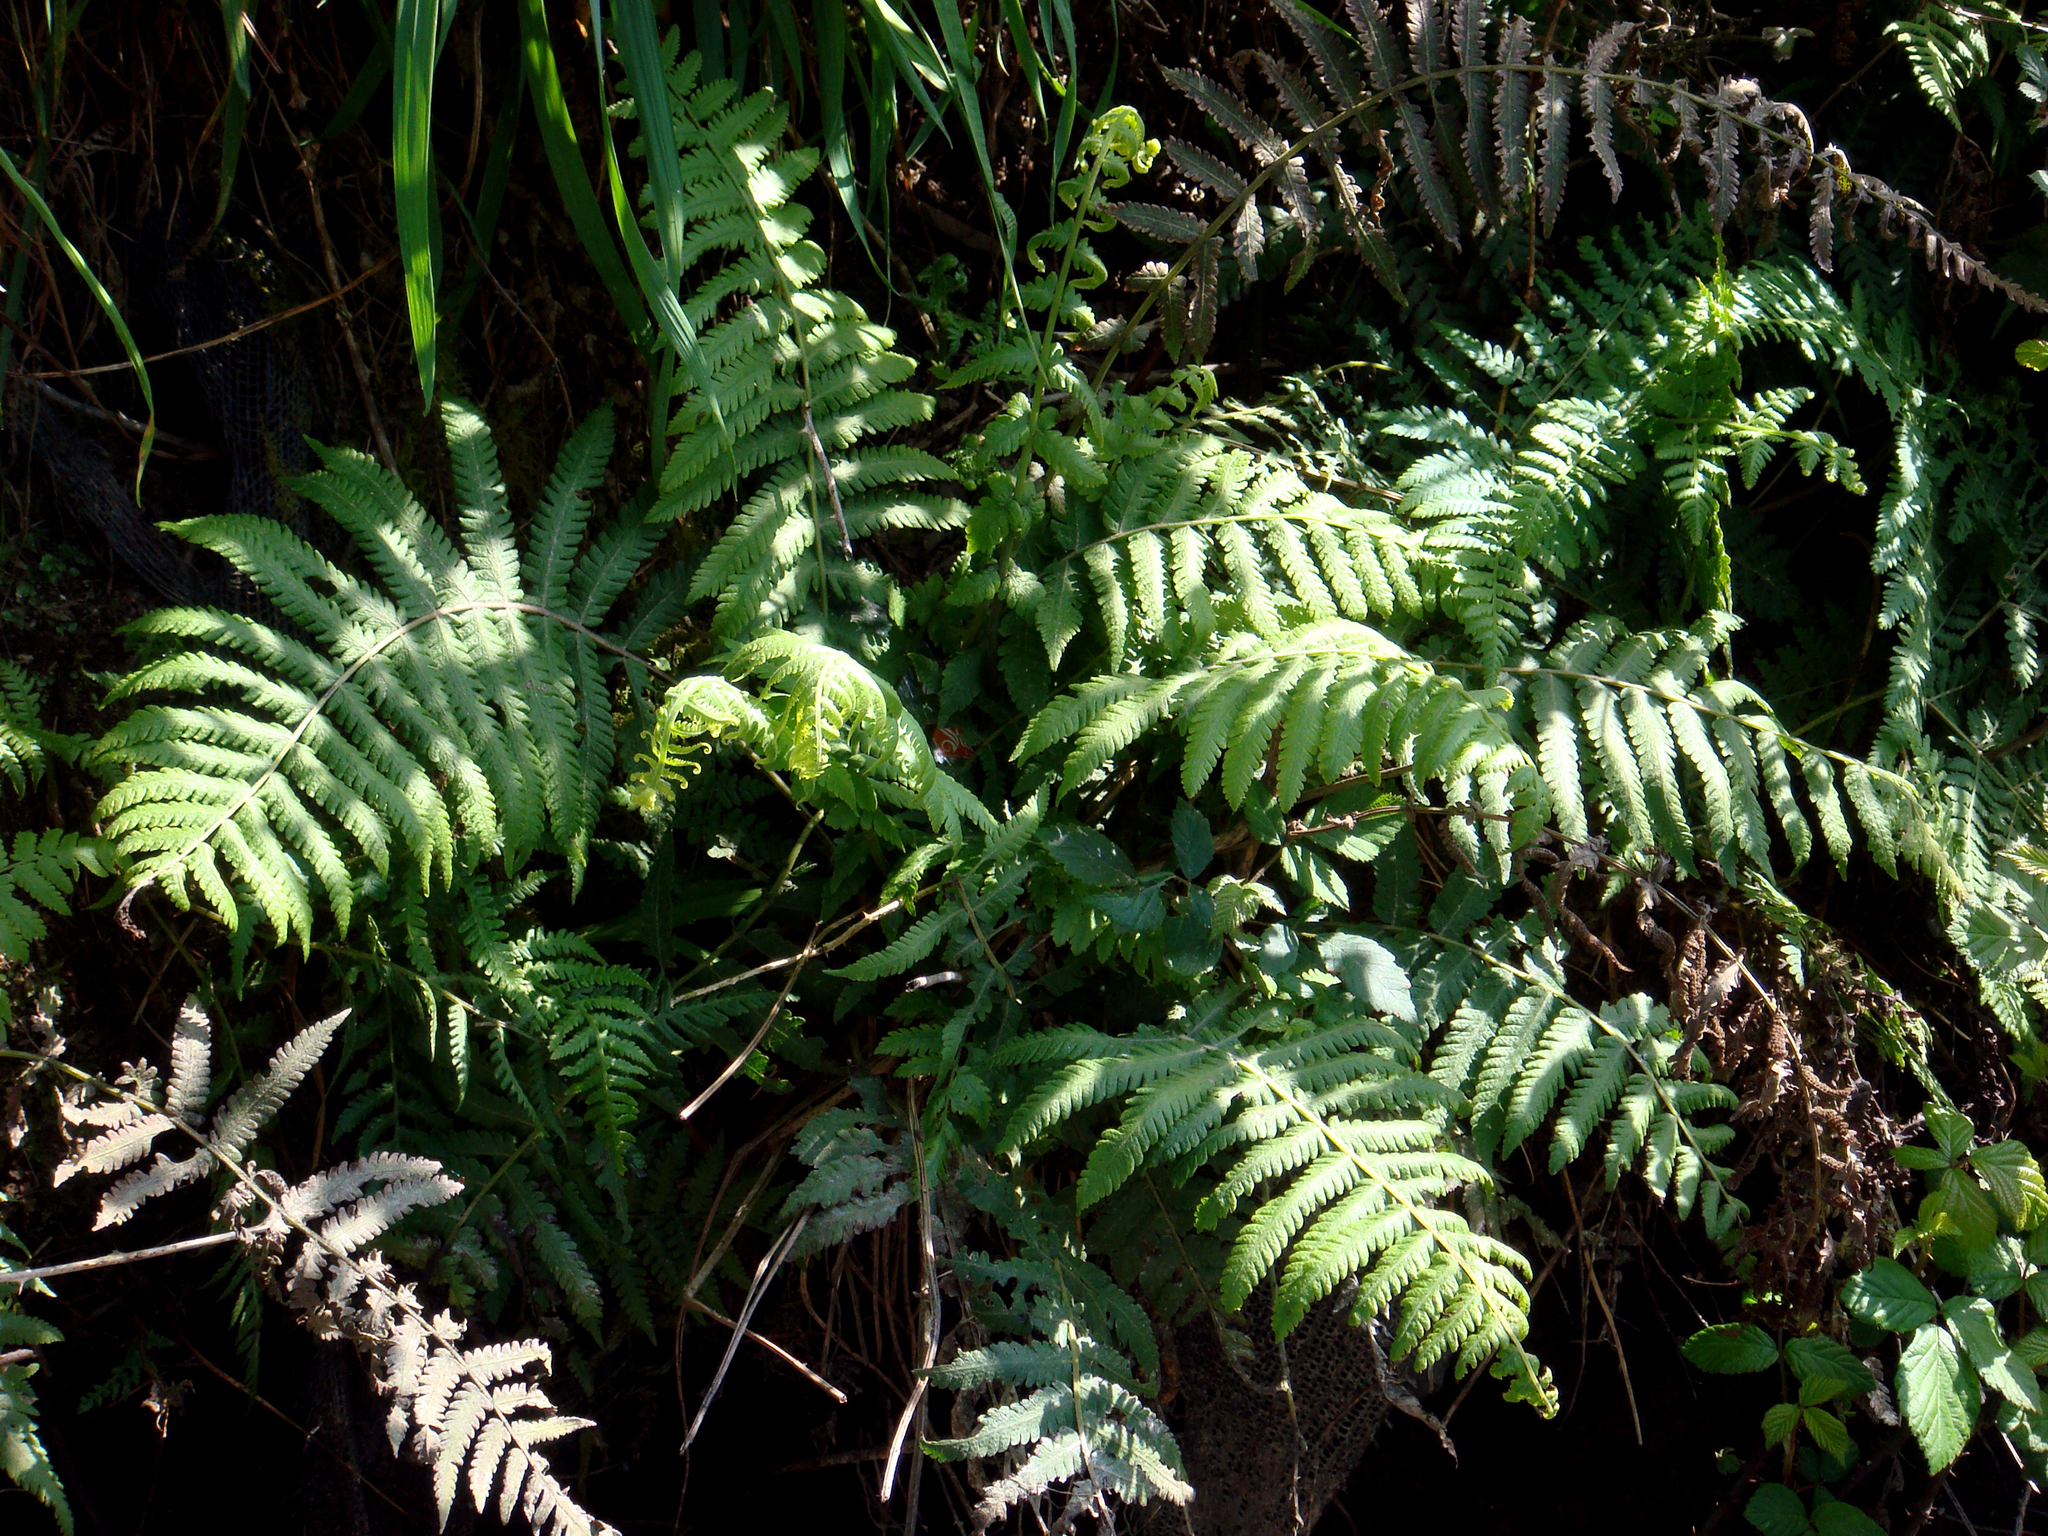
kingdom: Plantae
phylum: Tracheophyta
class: Polypodiopsida
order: Polypodiales
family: Thelypteridaceae
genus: Christella
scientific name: Christella dentata
